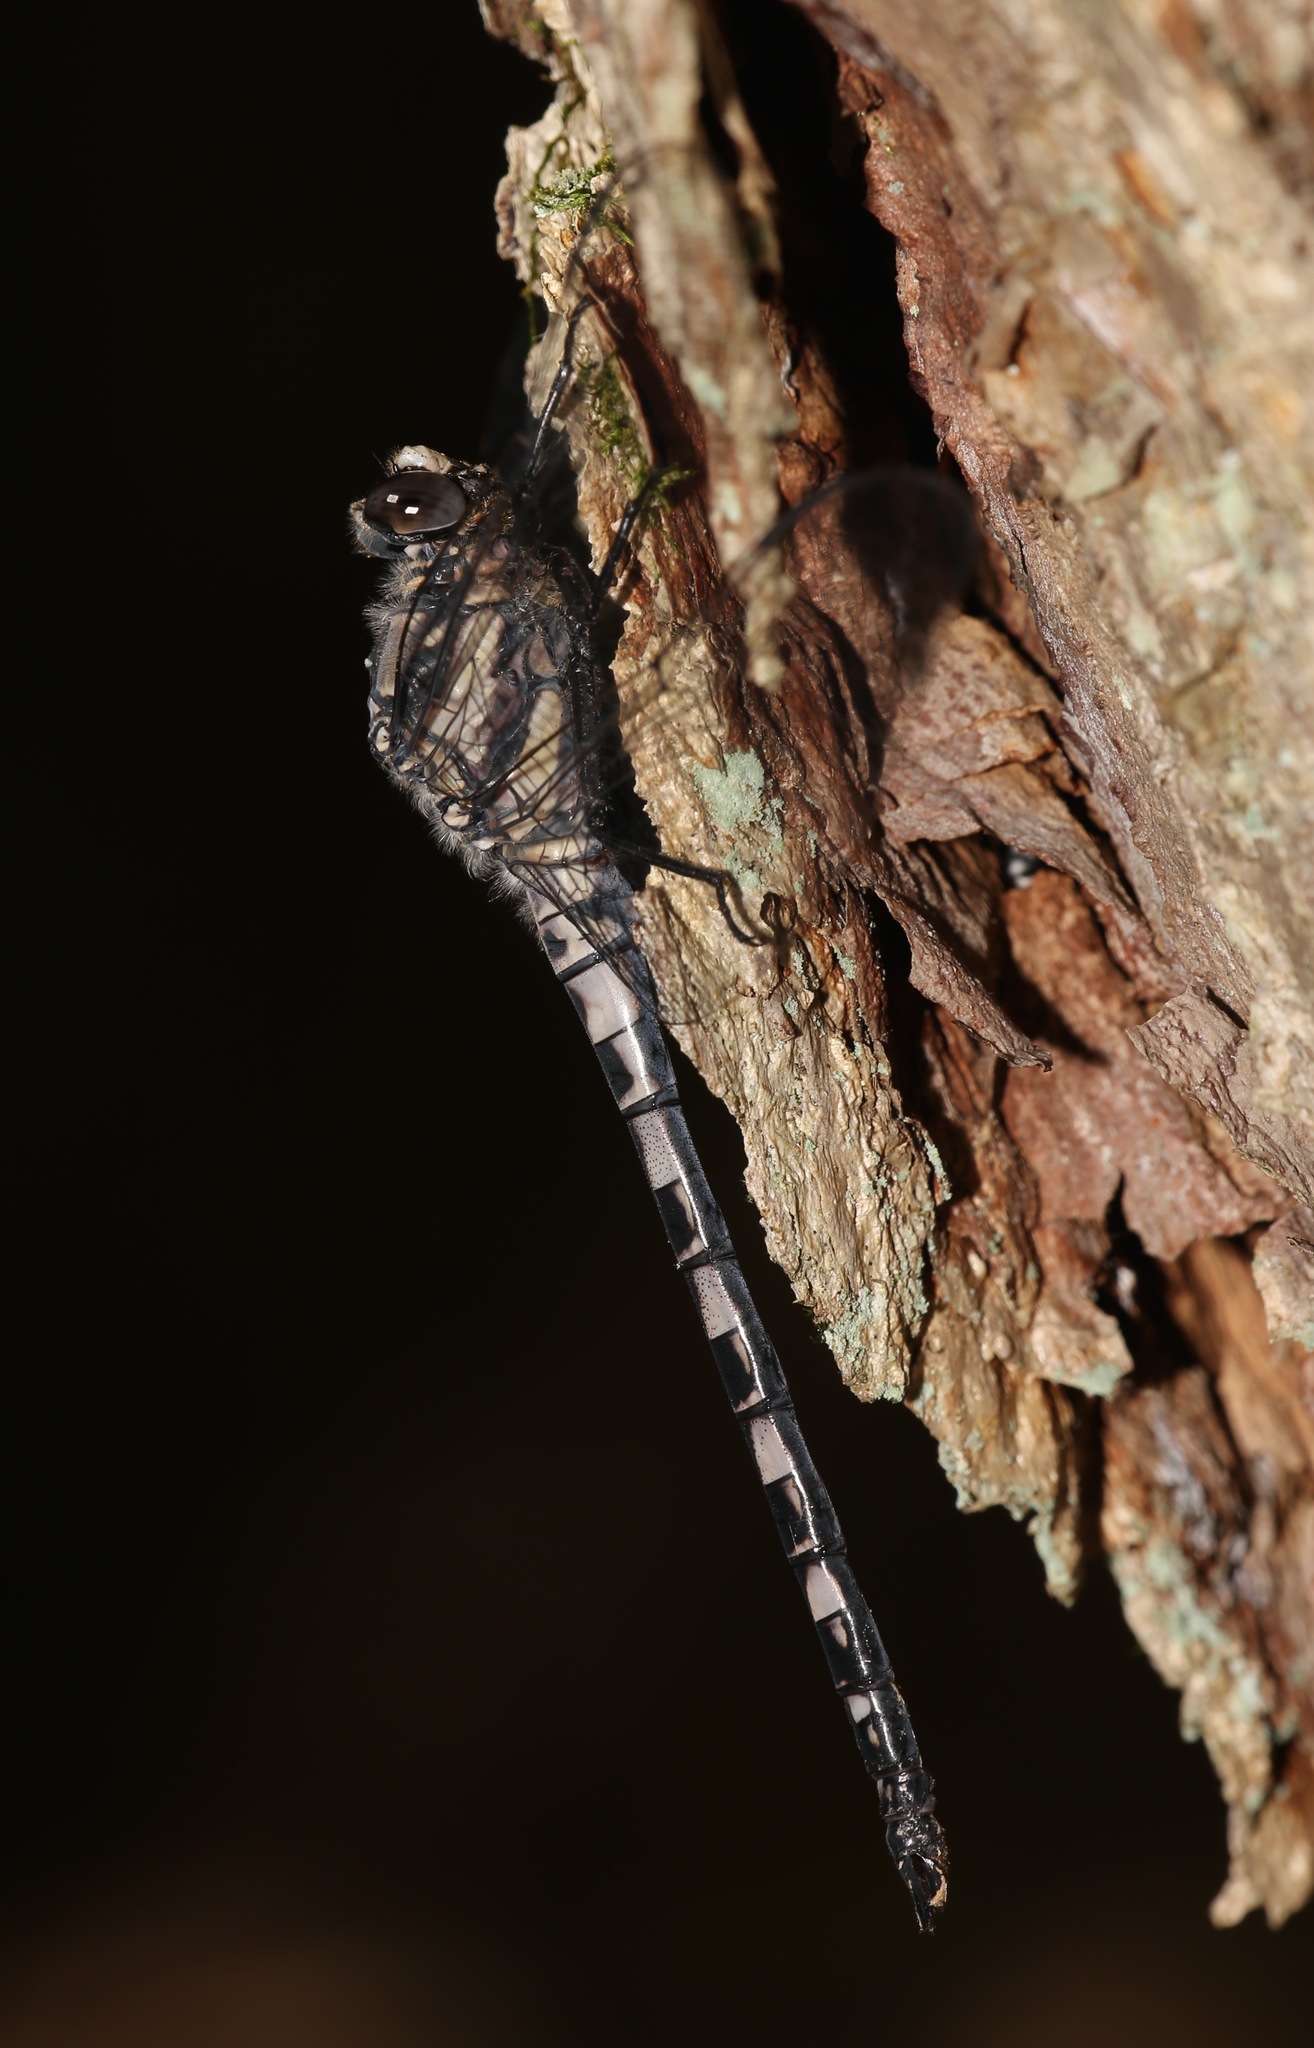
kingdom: Animalia
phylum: Arthropoda
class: Insecta
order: Odonata
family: Petaluridae
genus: Tachopteryx
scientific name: Tachopteryx thoreyi
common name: Gray petaltail
